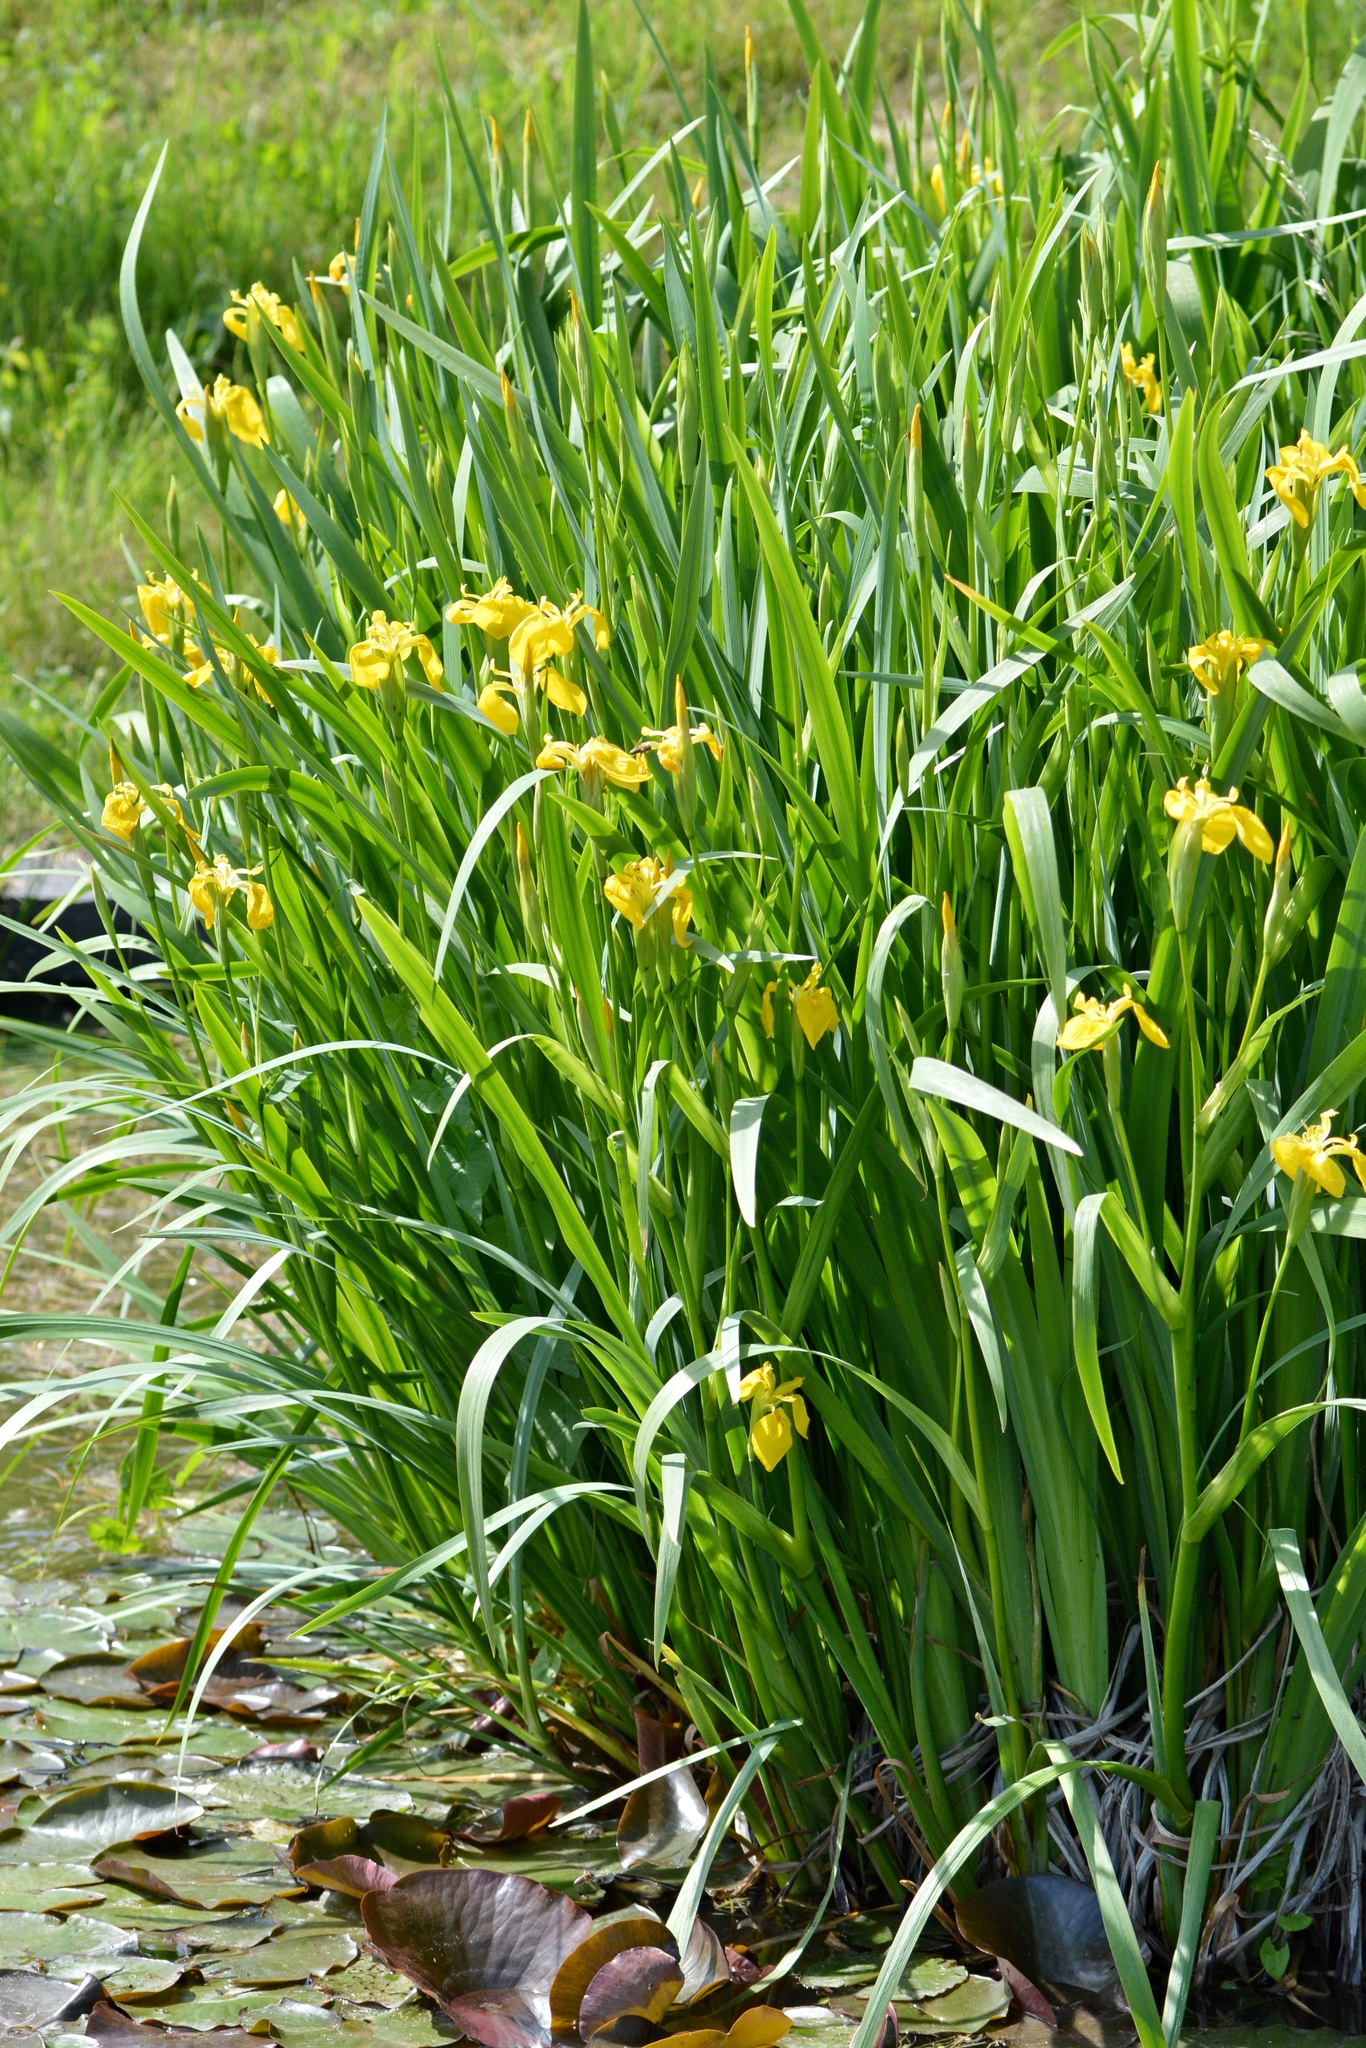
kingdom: Plantae
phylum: Tracheophyta
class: Liliopsida
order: Asparagales
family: Iridaceae
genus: Iris
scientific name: Iris pseudacorus
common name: Yellow flag
